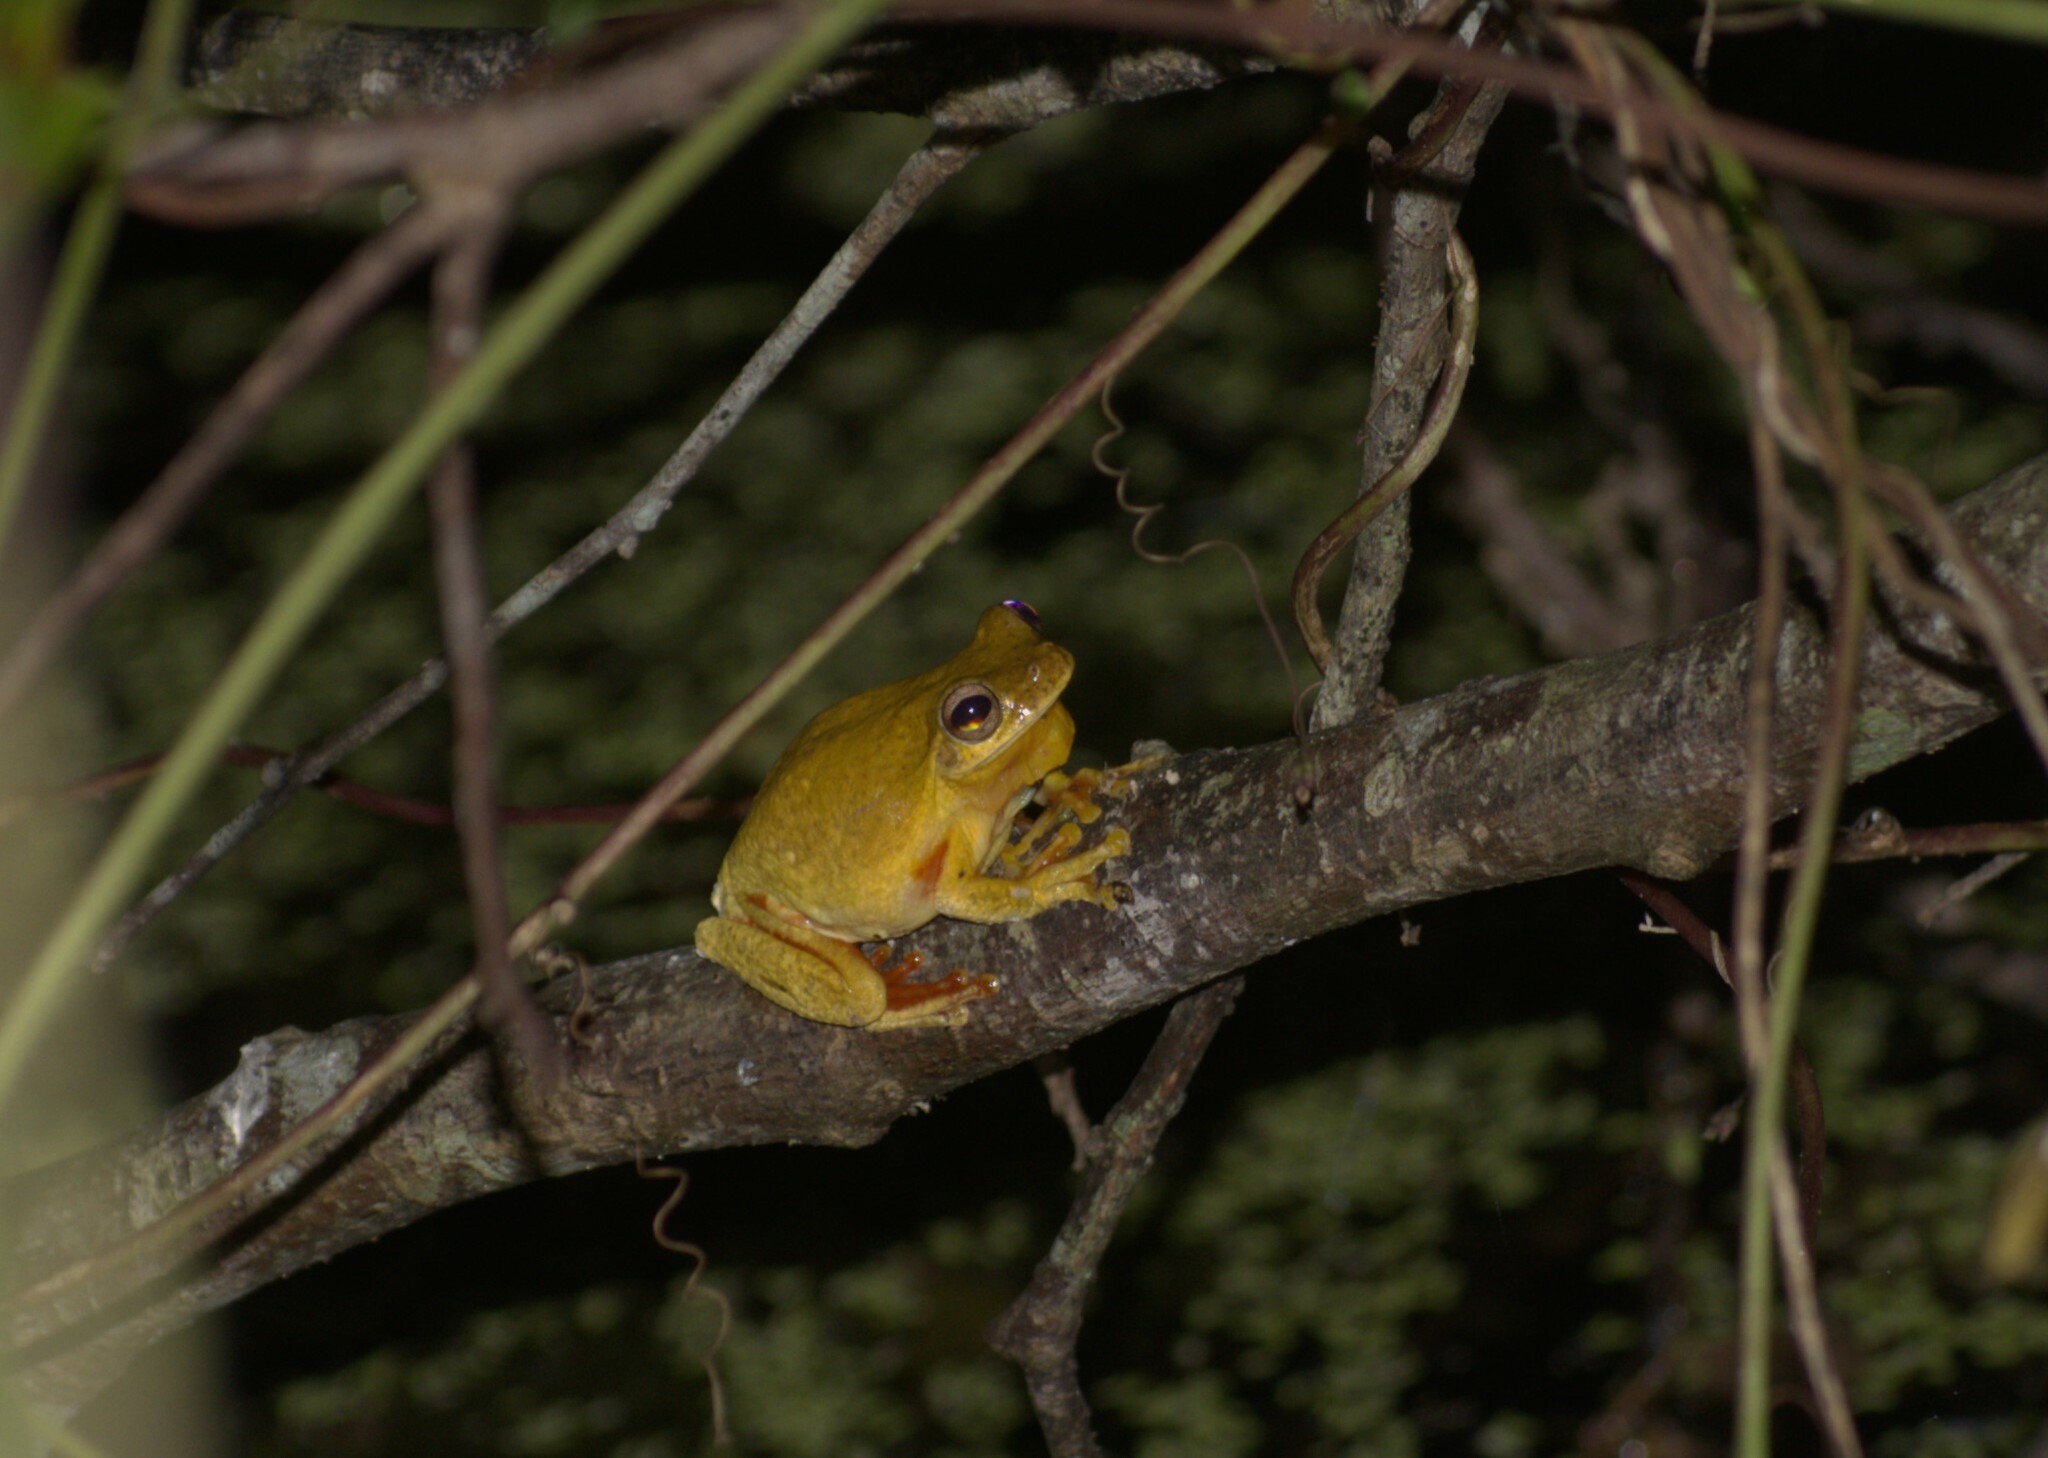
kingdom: Animalia
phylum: Chordata
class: Amphibia
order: Anura
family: Hylidae
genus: Tlalocohyla
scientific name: Tlalocohyla loquax
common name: Loquacious treefrog
